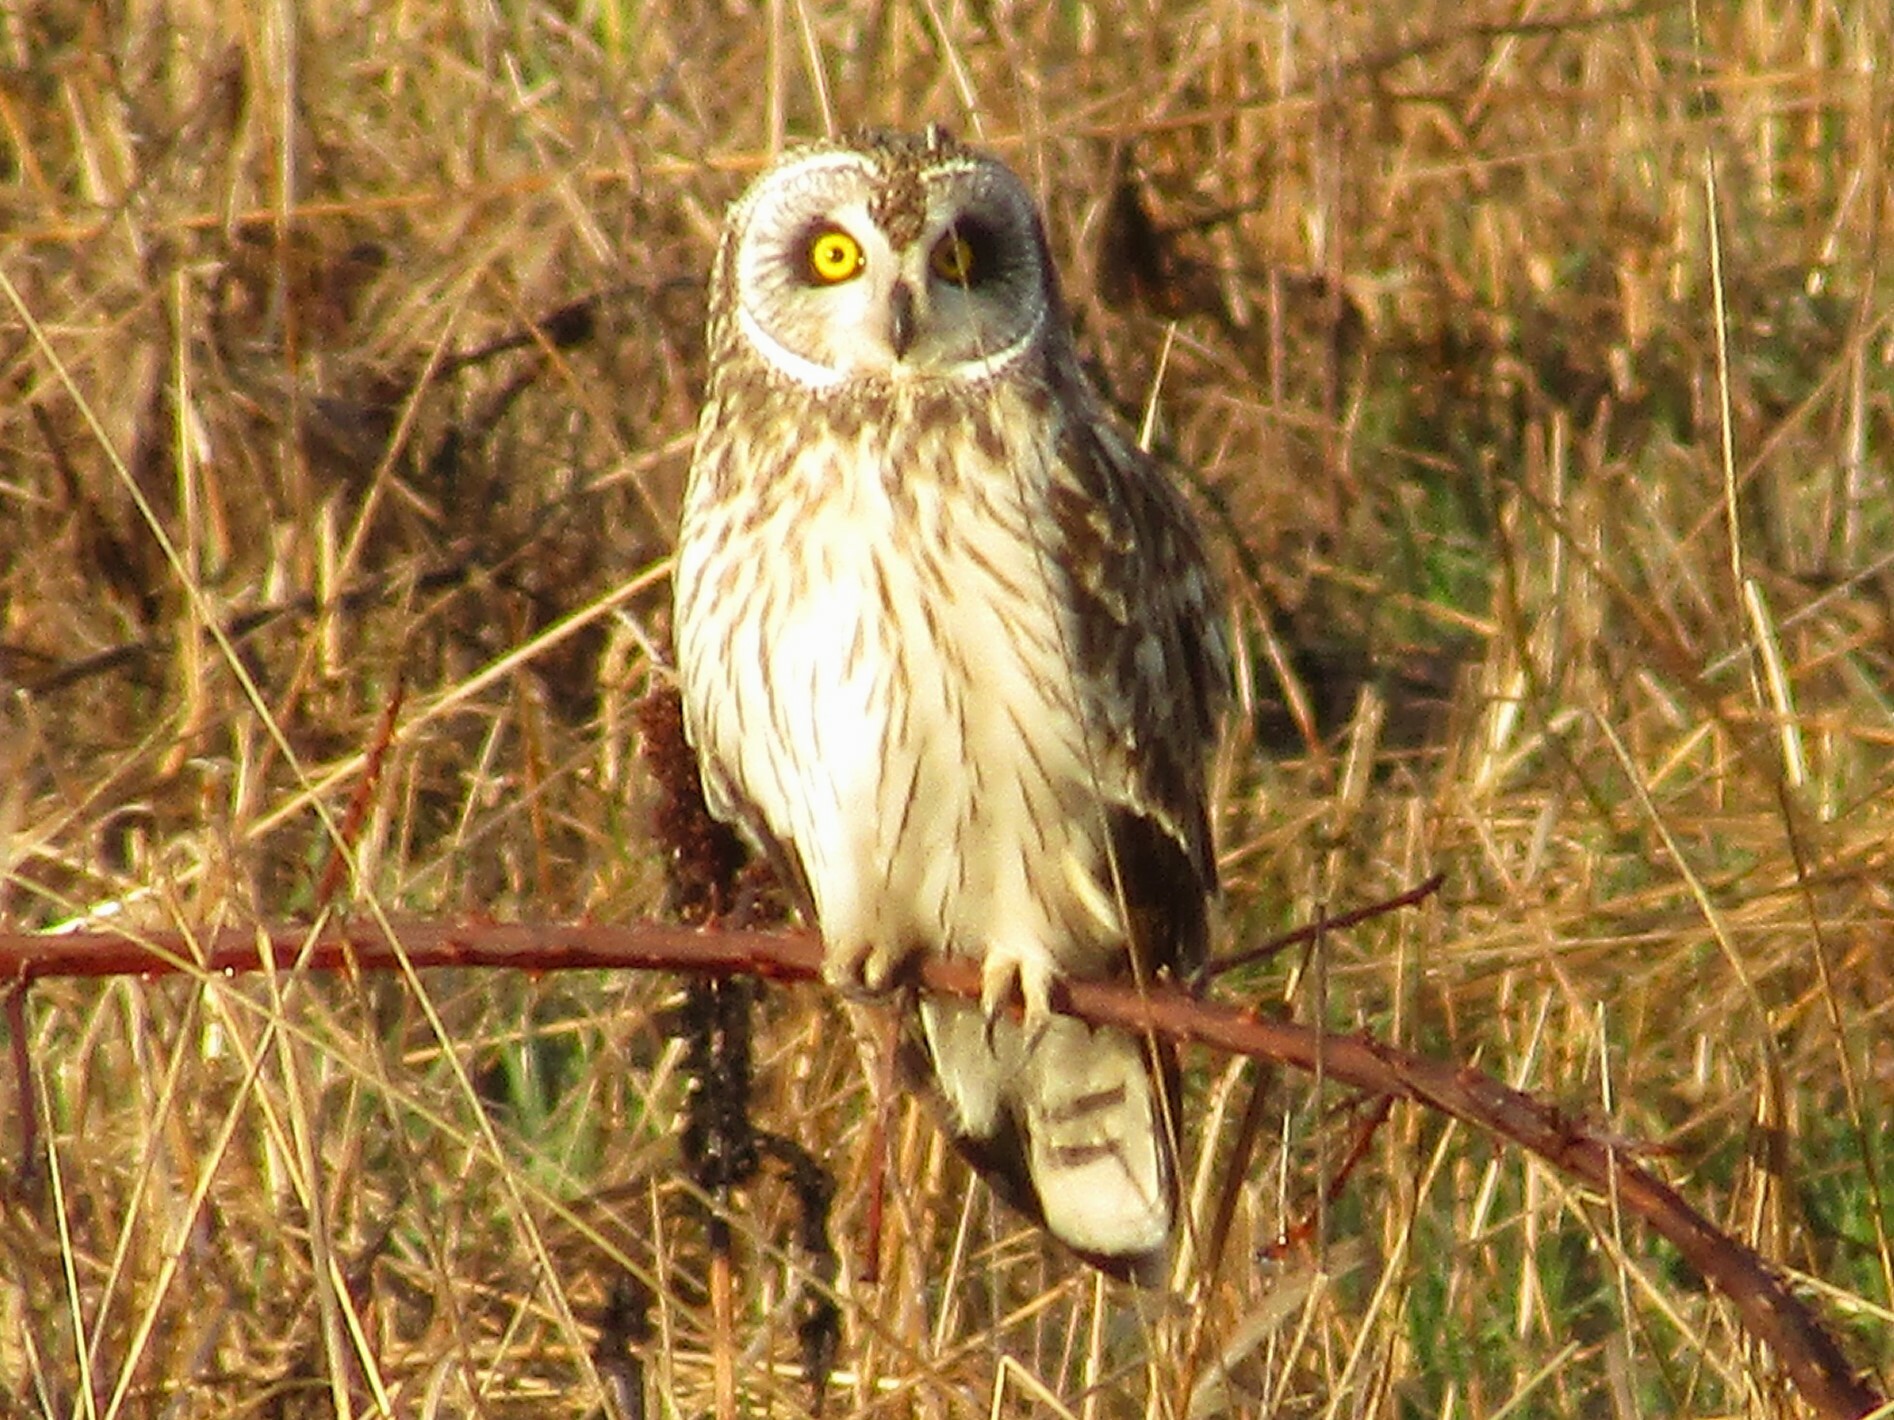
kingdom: Animalia
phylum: Chordata
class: Aves
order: Strigiformes
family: Strigidae
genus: Asio
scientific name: Asio flammeus
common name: Short-eared owl
